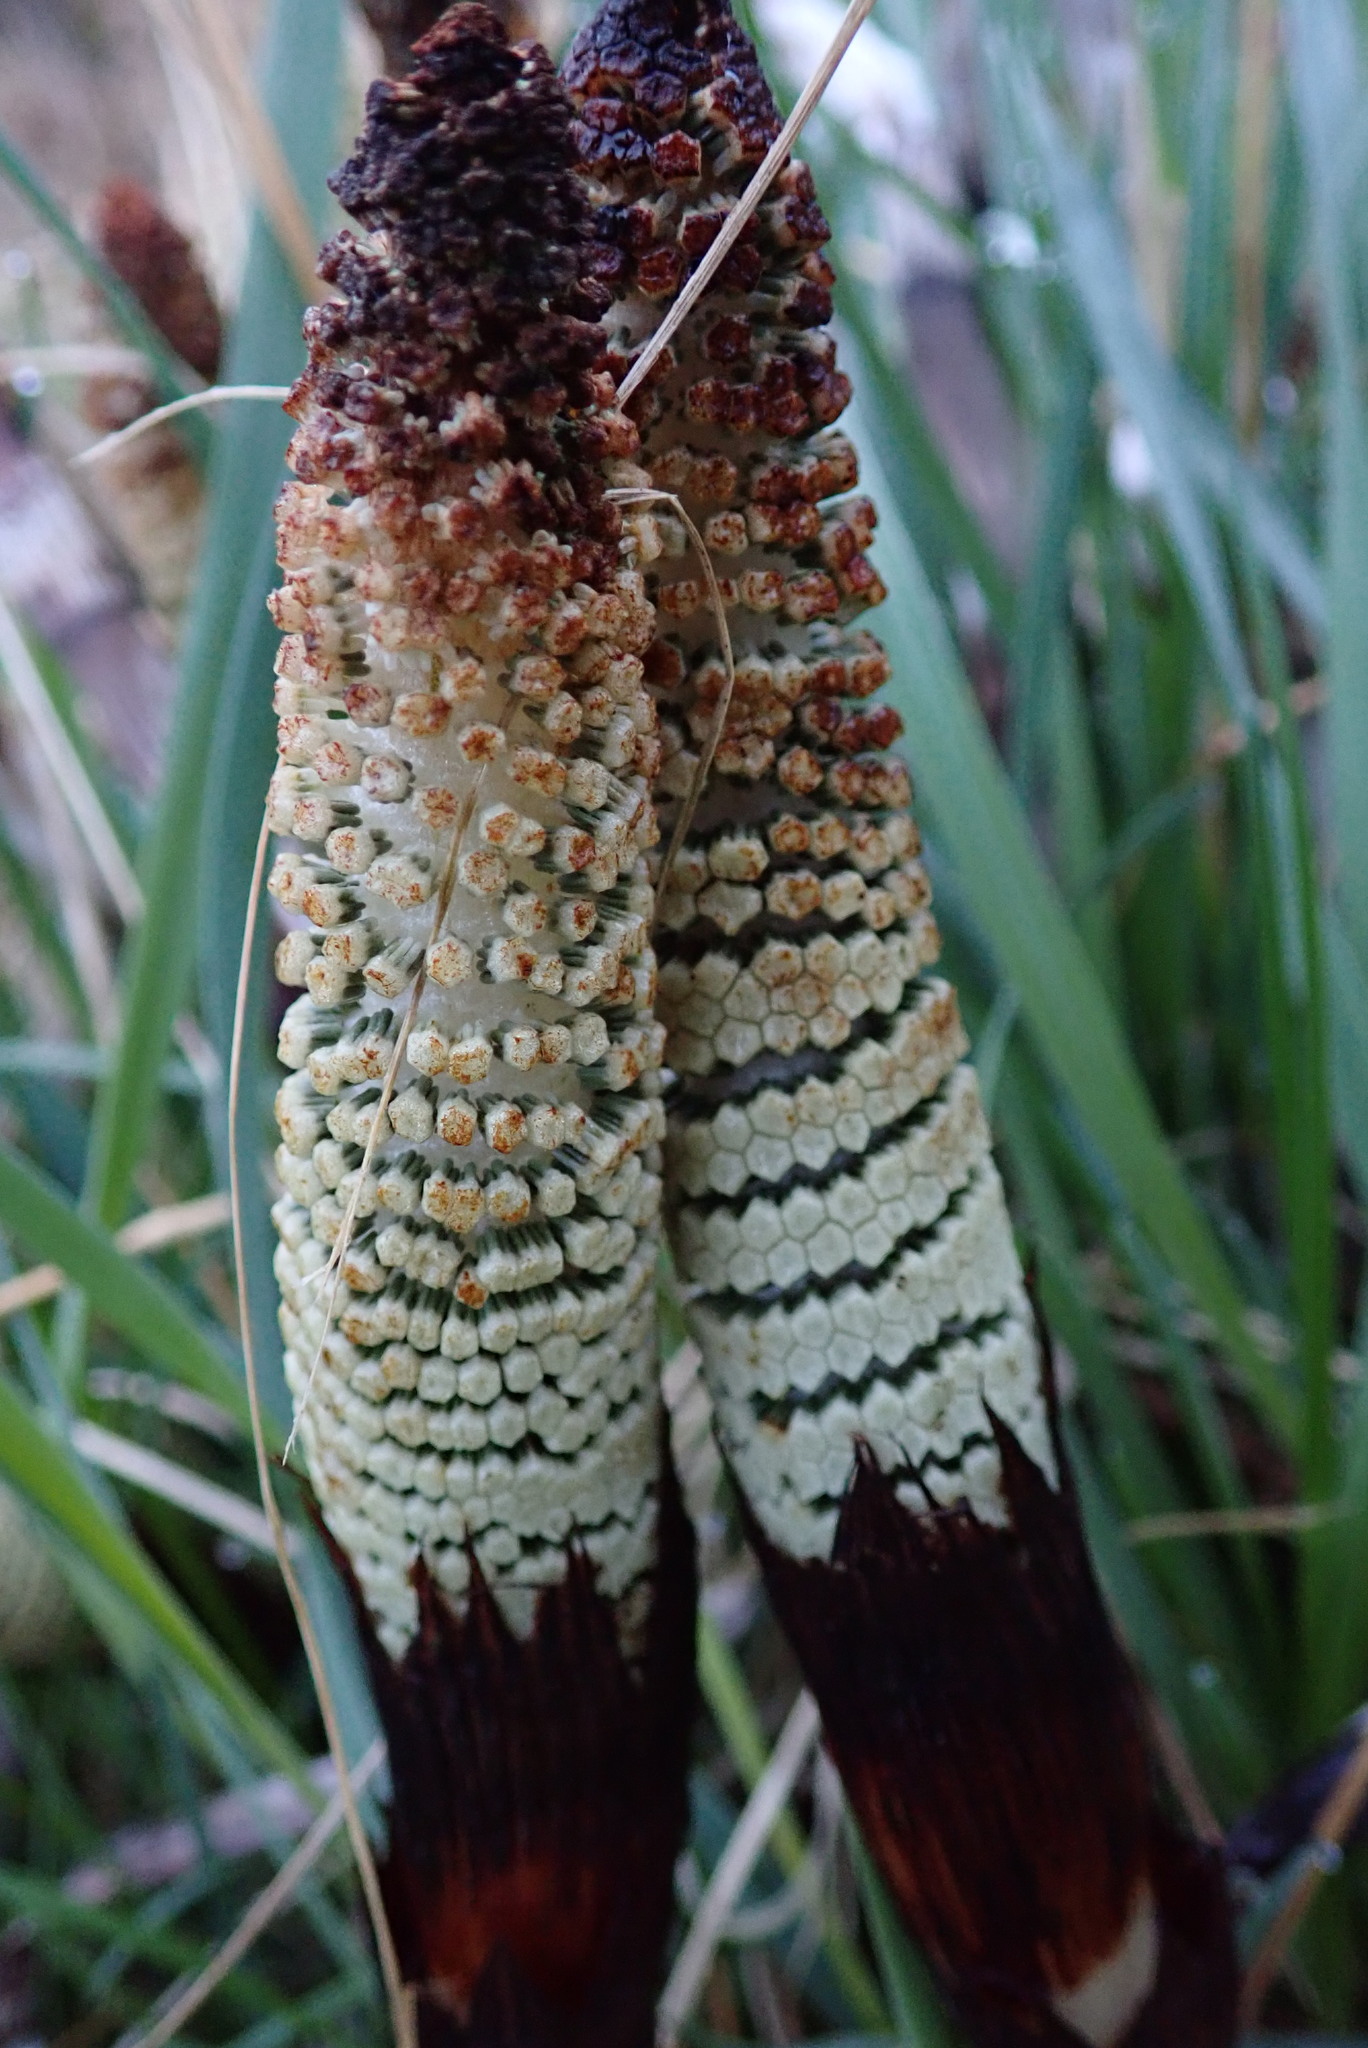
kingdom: Plantae
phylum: Tracheophyta
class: Polypodiopsida
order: Equisetales
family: Equisetaceae
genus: Equisetum
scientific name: Equisetum telmateia
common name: Great horsetail
